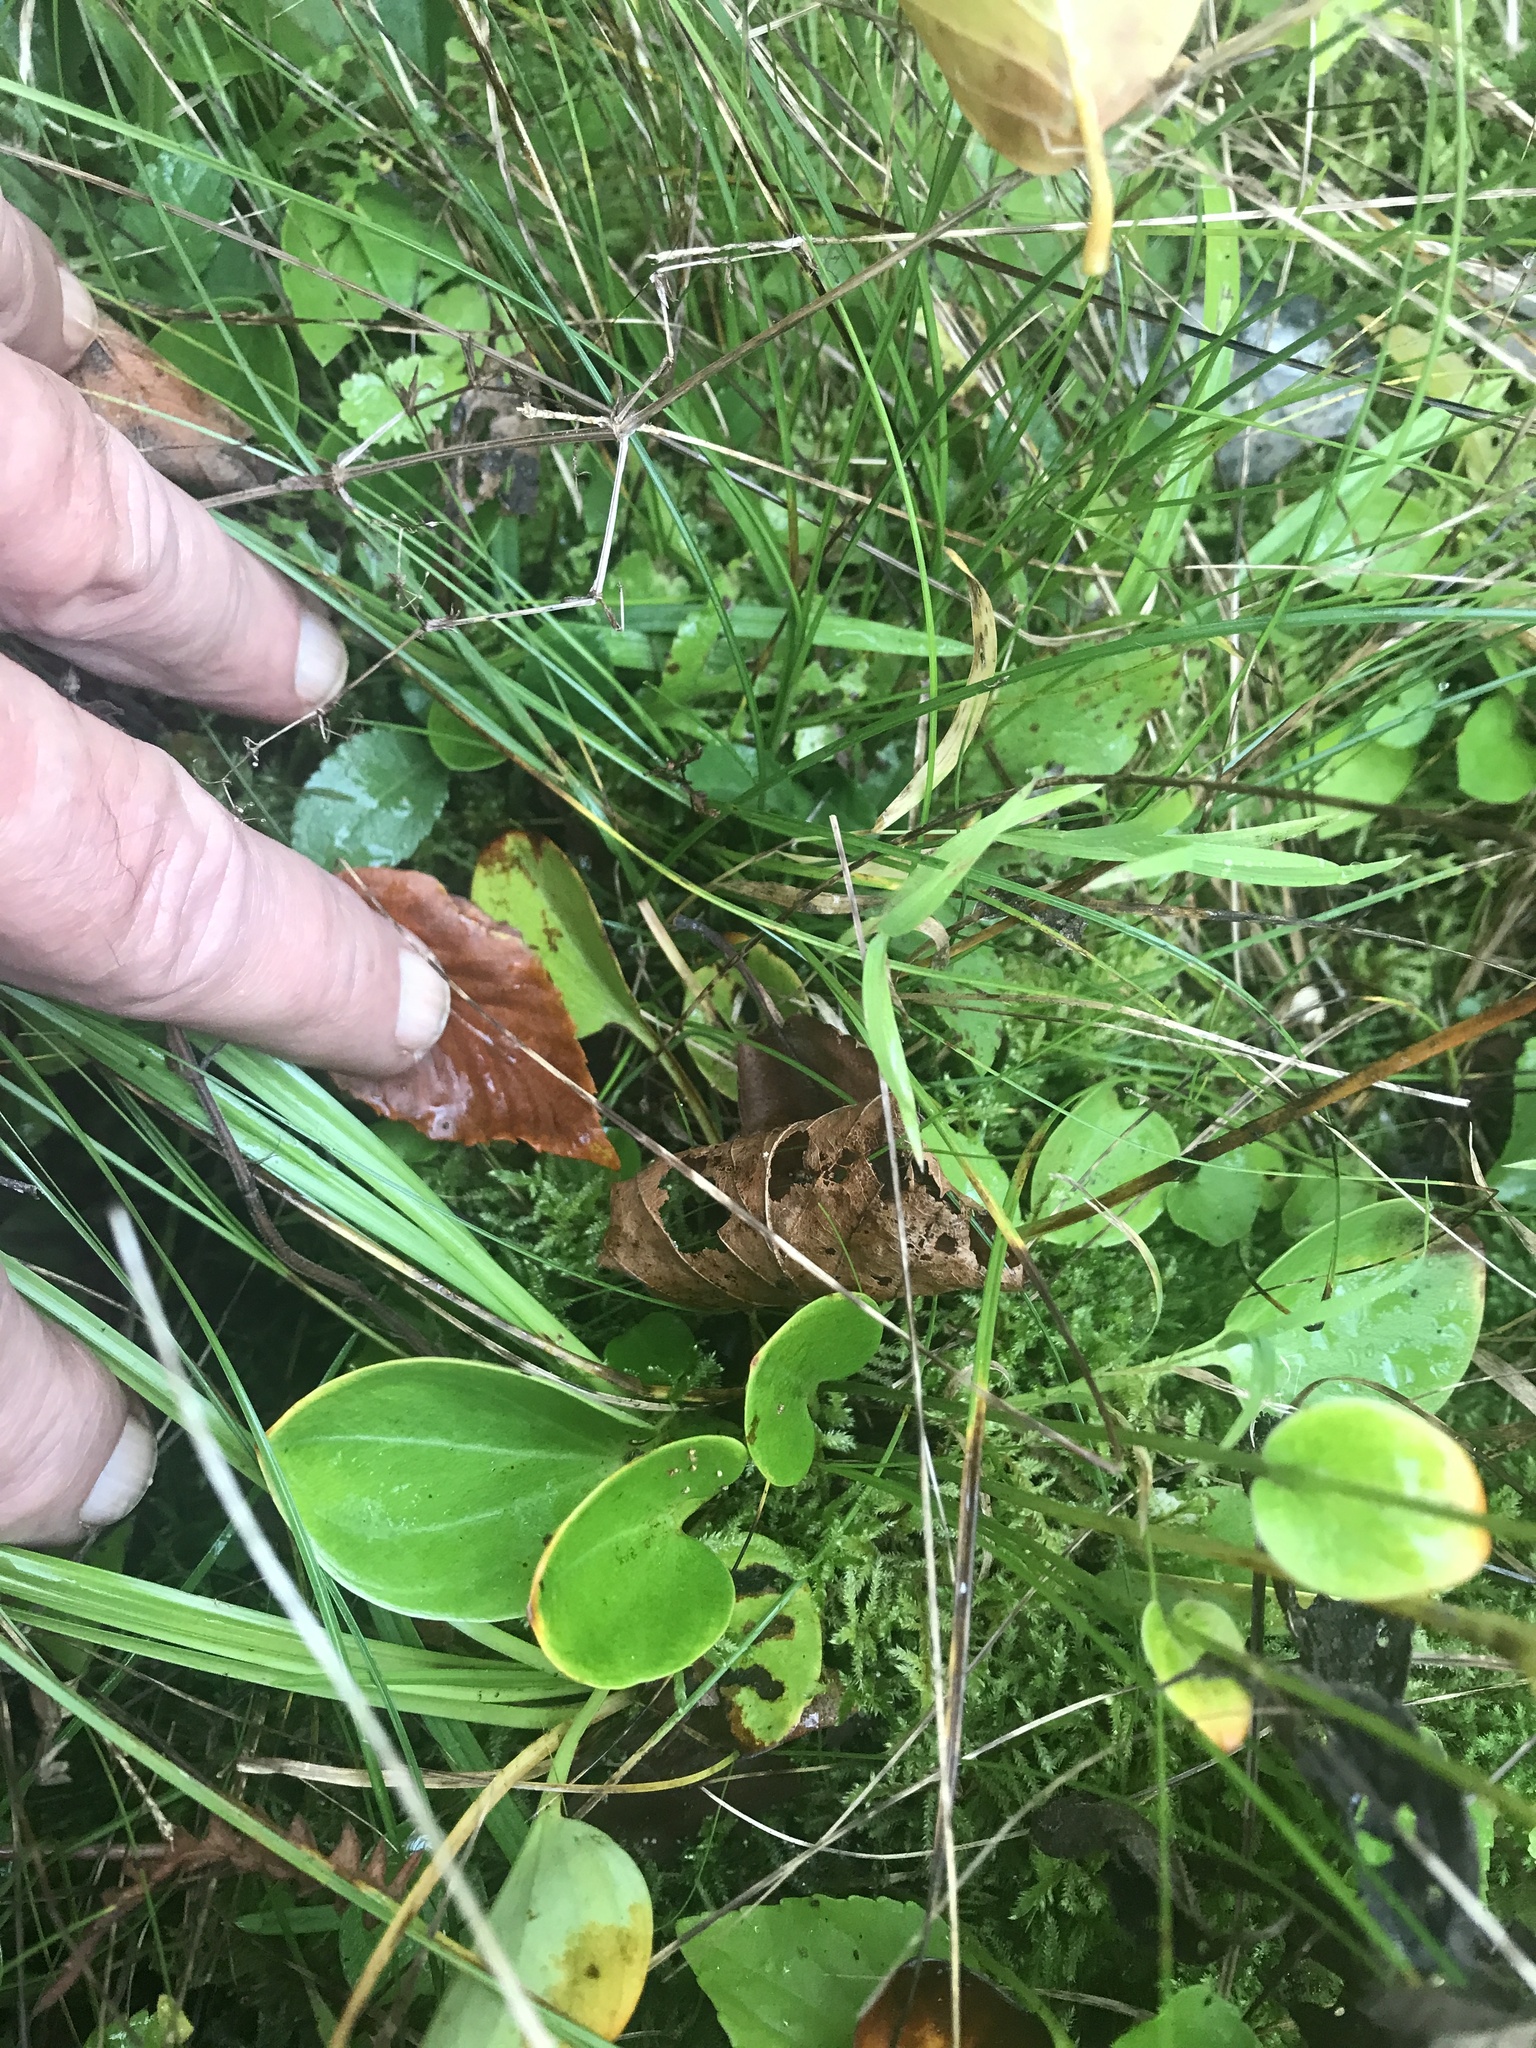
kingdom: Plantae
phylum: Tracheophyta
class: Magnoliopsida
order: Celastrales
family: Parnassiaceae
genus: Parnassia
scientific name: Parnassia glauca
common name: American grass-of-parnassus
